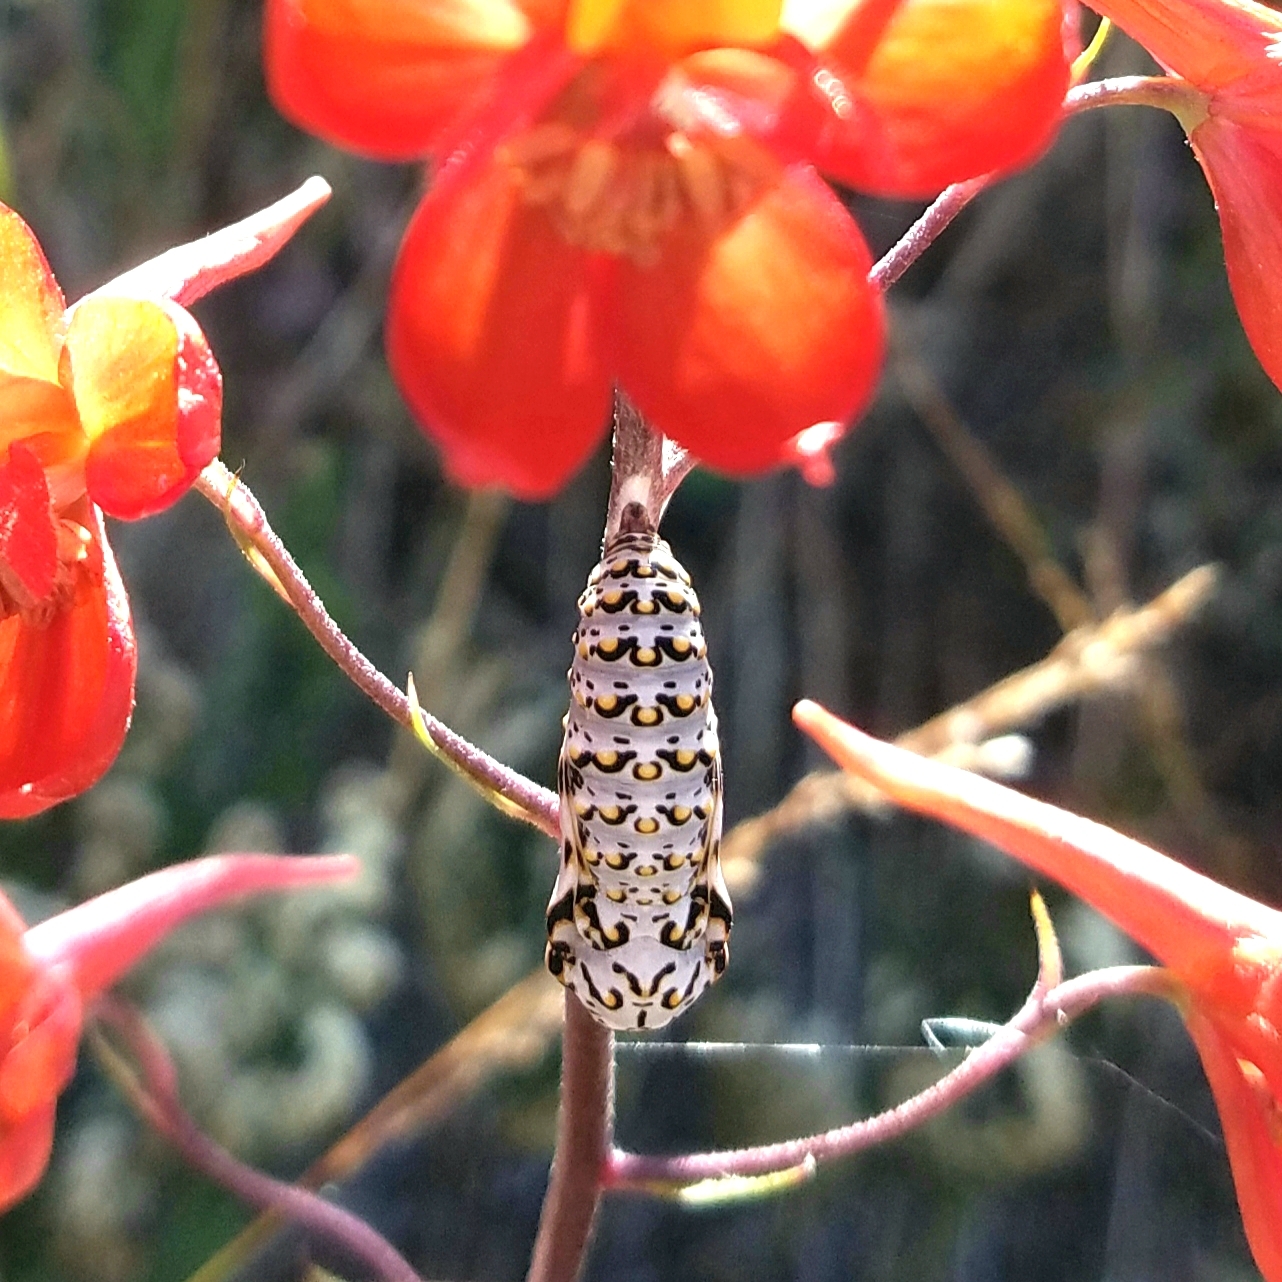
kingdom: Animalia
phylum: Arthropoda
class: Insecta
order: Lepidoptera
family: Nymphalidae
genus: Occidryas
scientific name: Occidryas chalcedona
